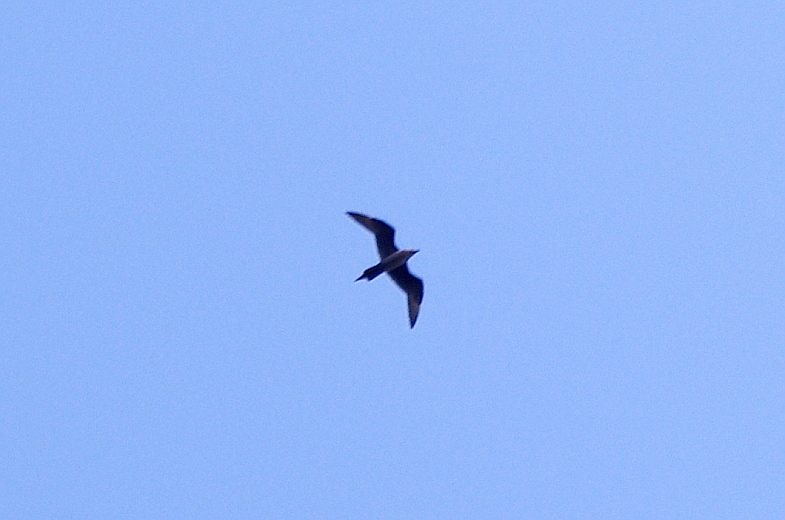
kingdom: Animalia
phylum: Chordata
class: Aves
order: Charadriiformes
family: Stercorariidae
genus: Stercorarius
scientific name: Stercorarius parasiticus
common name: Parasitic jaeger
